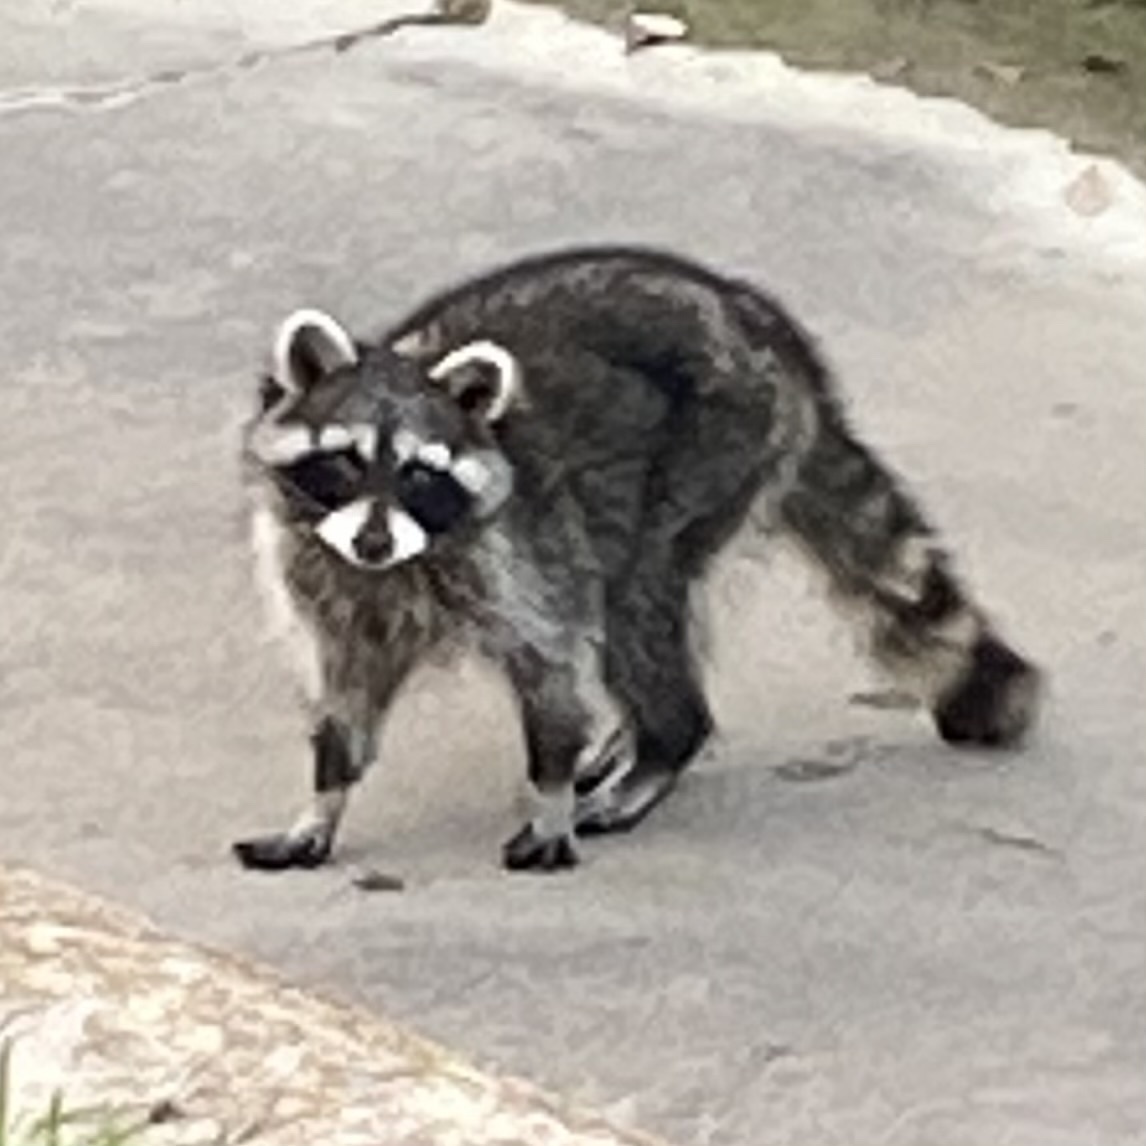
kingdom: Animalia
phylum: Chordata
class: Mammalia
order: Carnivora
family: Procyonidae
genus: Procyon
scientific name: Procyon lotor
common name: Raccoon
